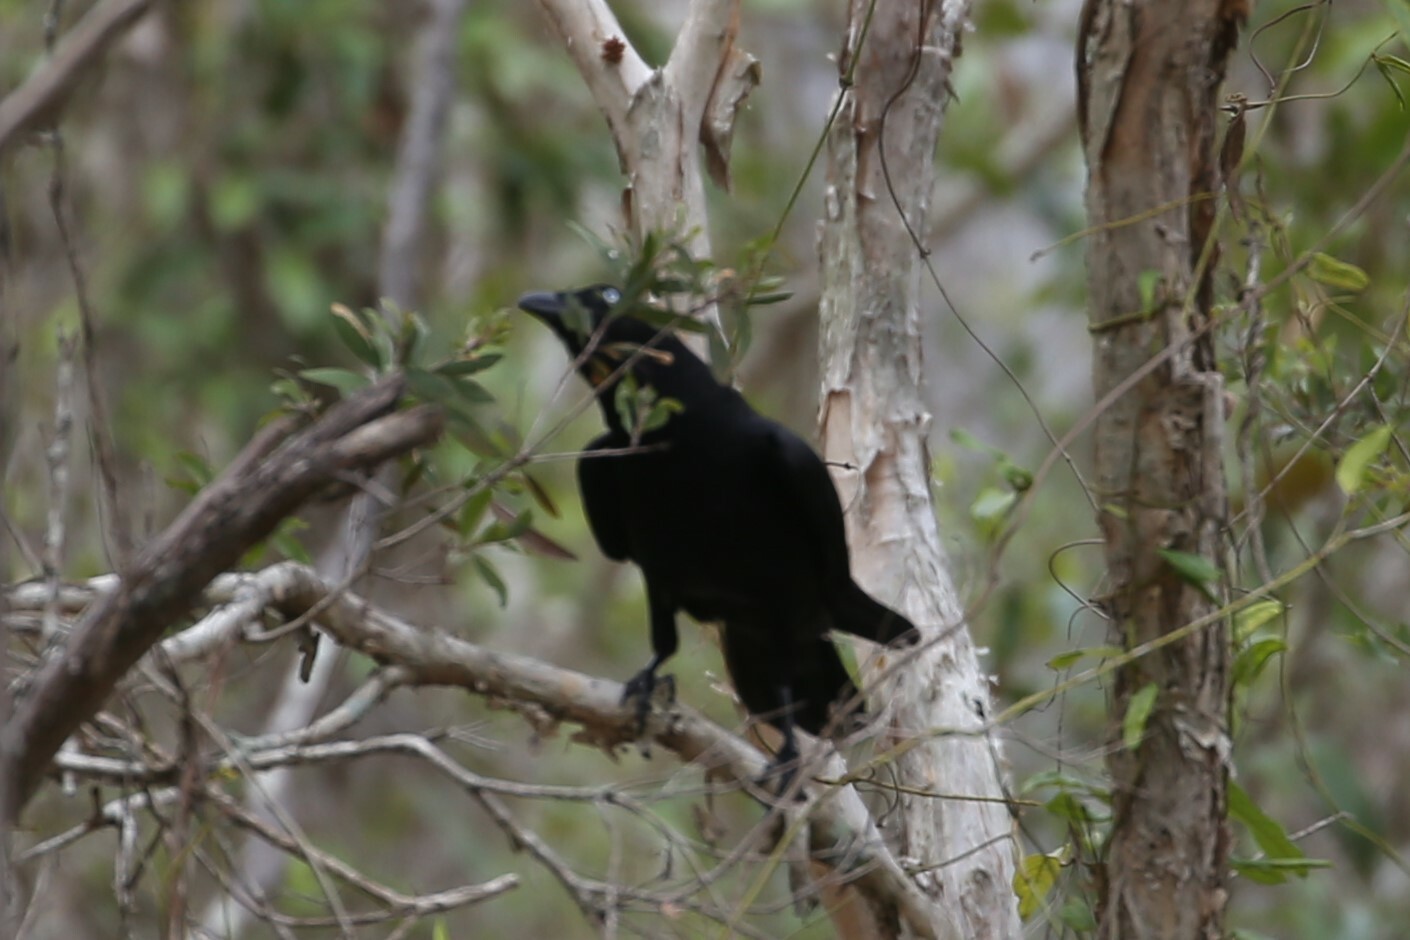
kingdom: Animalia
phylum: Chordata
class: Aves
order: Passeriformes
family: Corvidae
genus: Corvus
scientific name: Corvus orru
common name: Torresian crow
